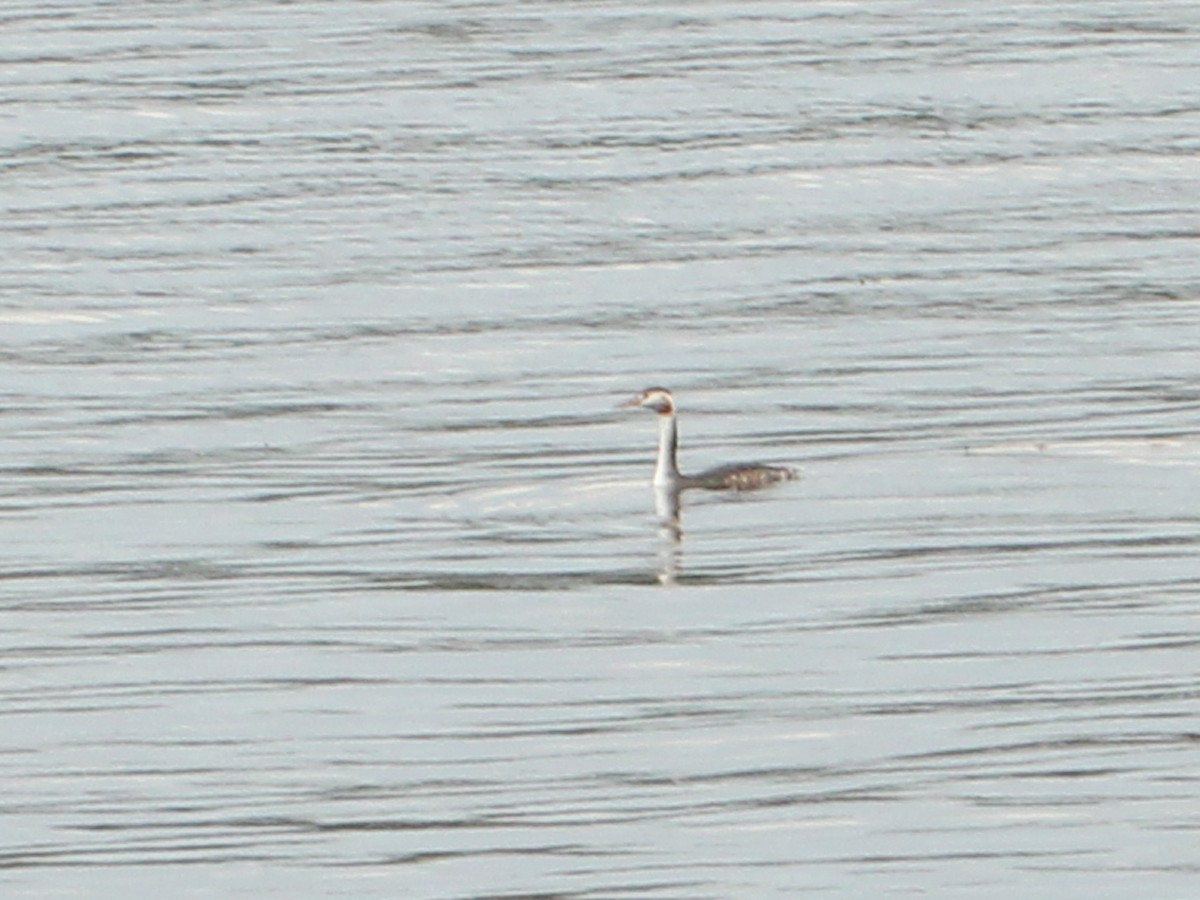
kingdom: Animalia
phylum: Chordata
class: Aves
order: Podicipediformes
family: Podicipedidae
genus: Podiceps
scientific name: Podiceps cristatus
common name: Great crested grebe
